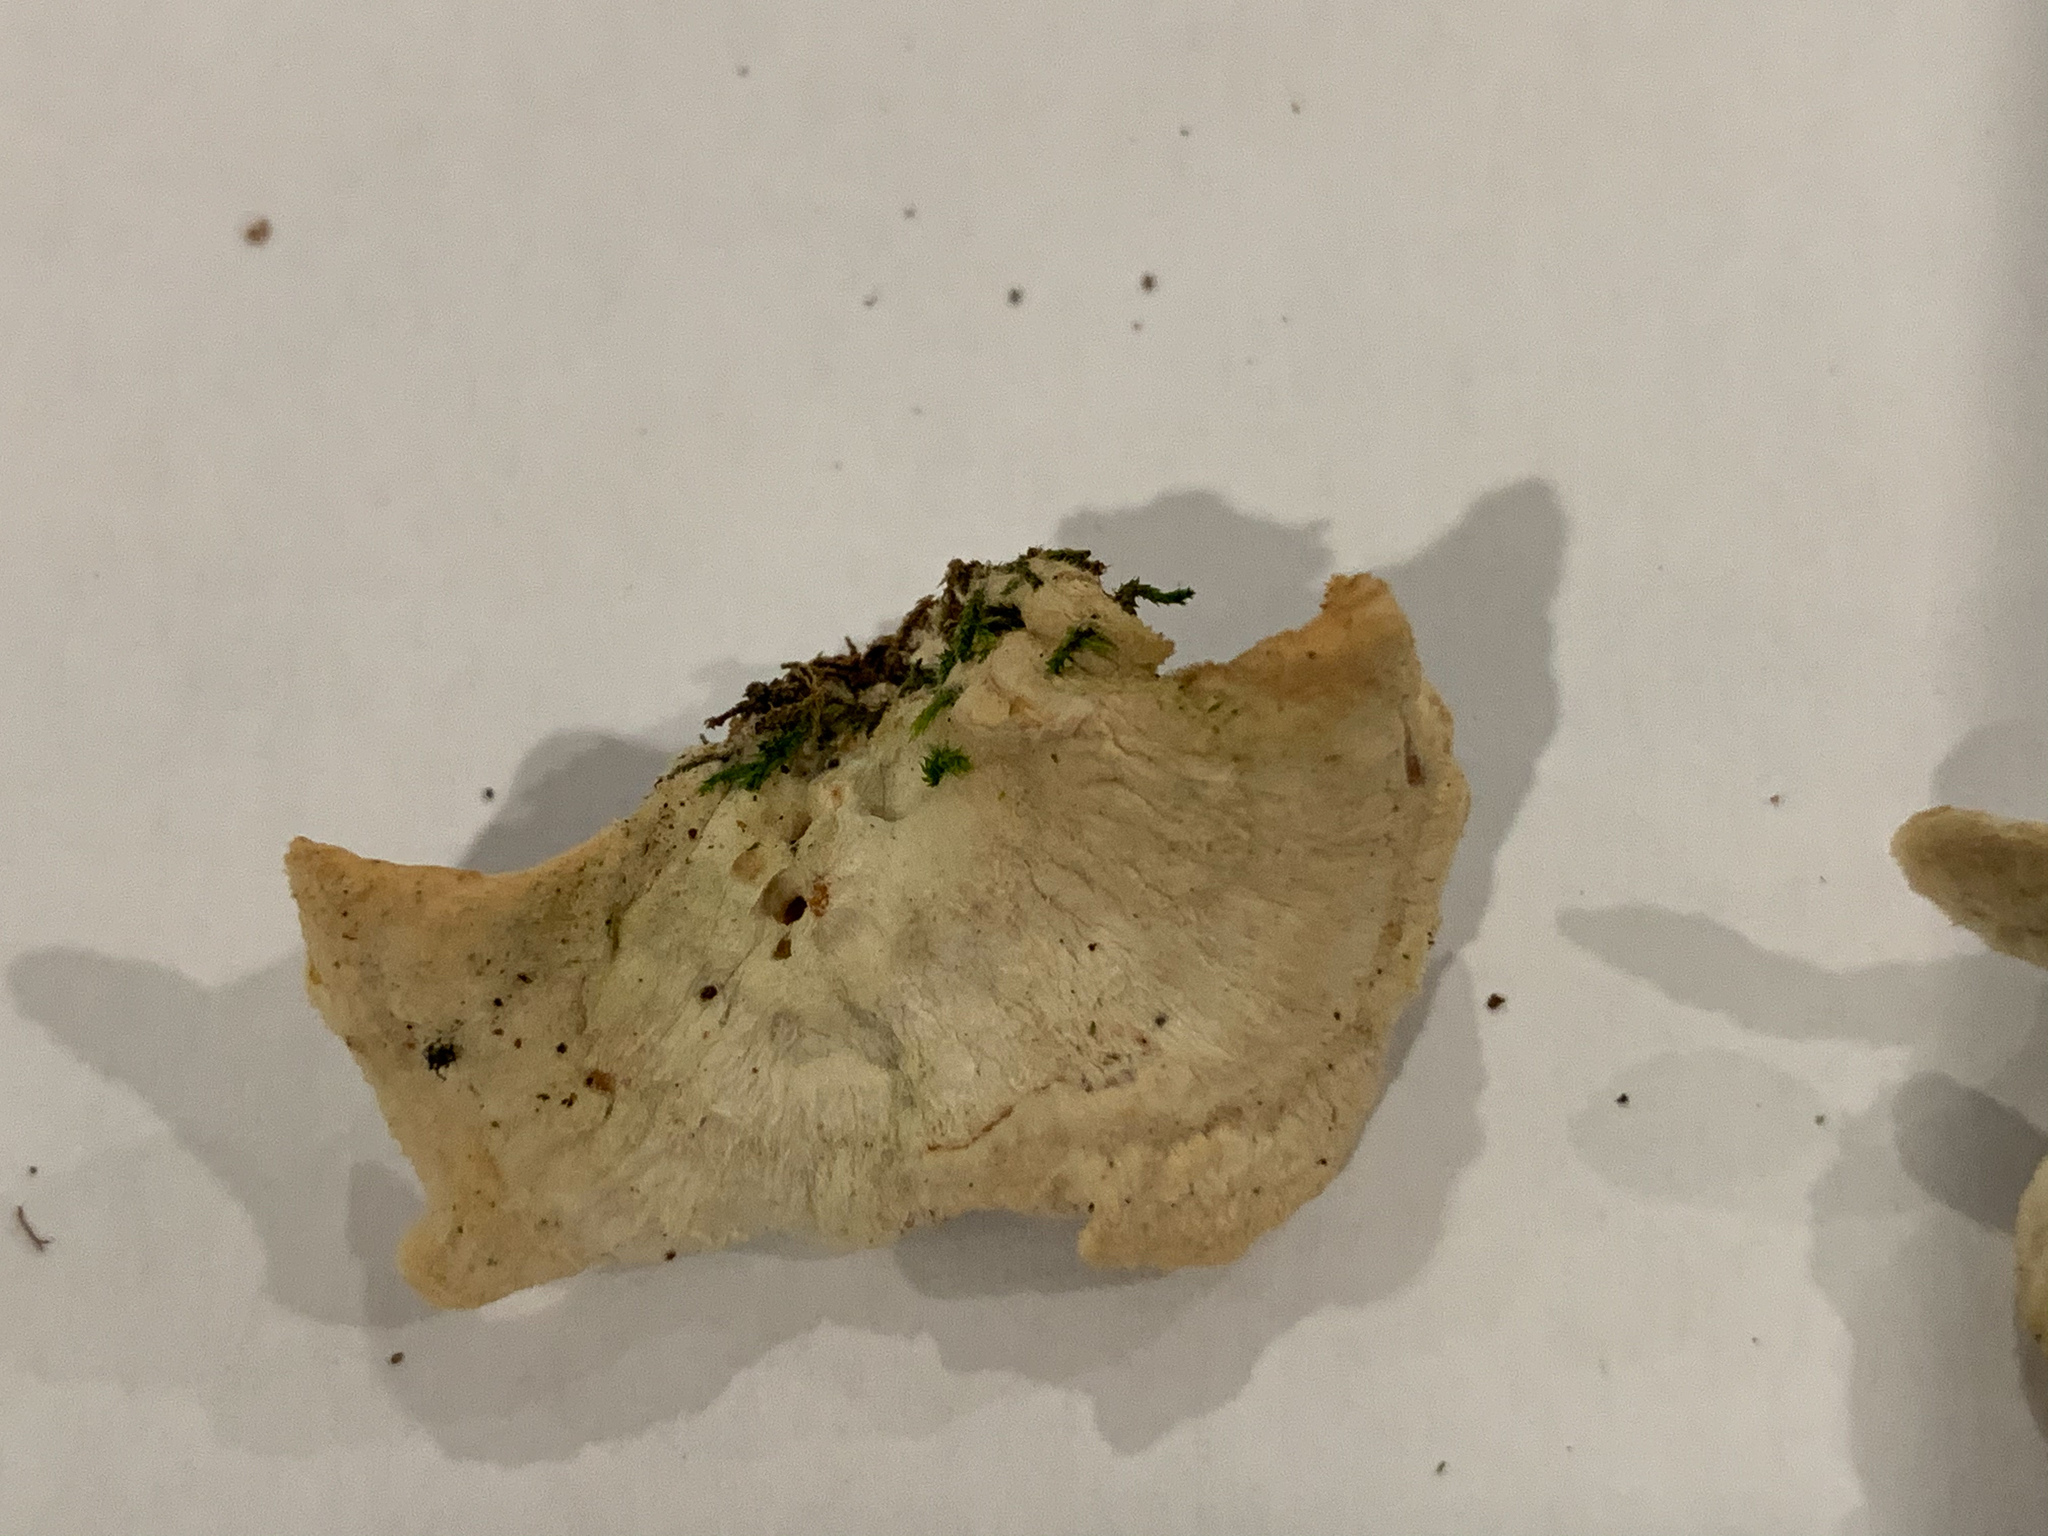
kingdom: Fungi
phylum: Basidiomycota
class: Agaricomycetes
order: Polyporales
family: Steccherinaceae
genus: Steccherinum
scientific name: Steccherinum ochraceum
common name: Ochre spreading tooth
